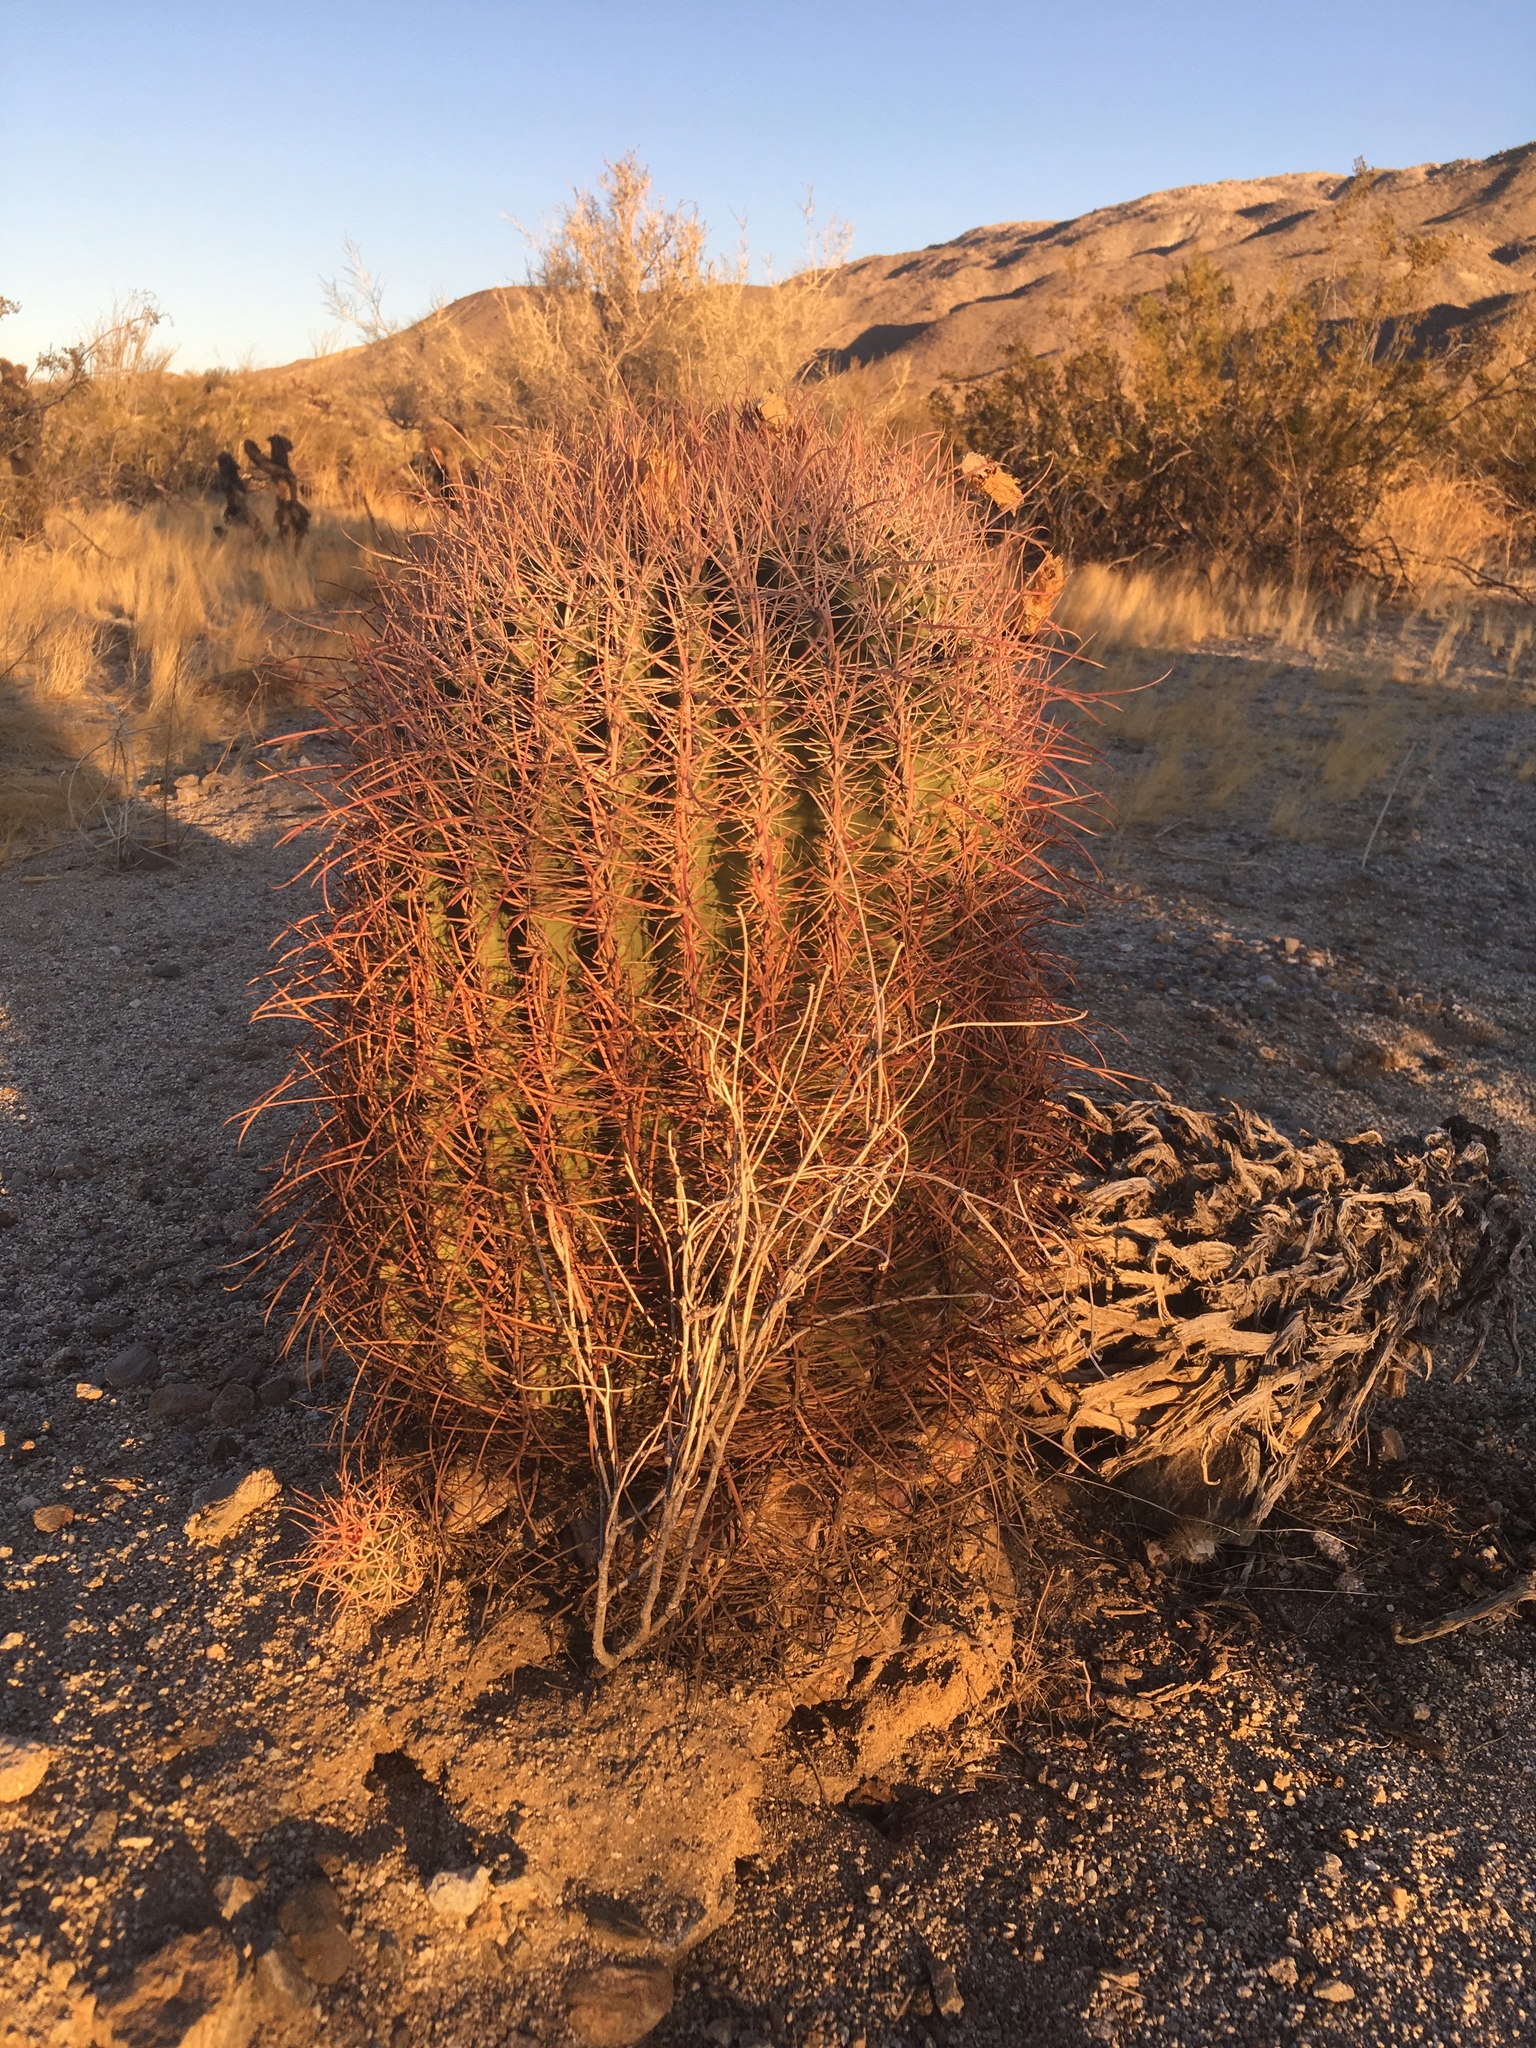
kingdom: Plantae
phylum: Tracheophyta
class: Magnoliopsida
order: Caryophyllales
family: Cactaceae
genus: Ferocactus
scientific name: Ferocactus cylindraceus
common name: California barrel cactus
